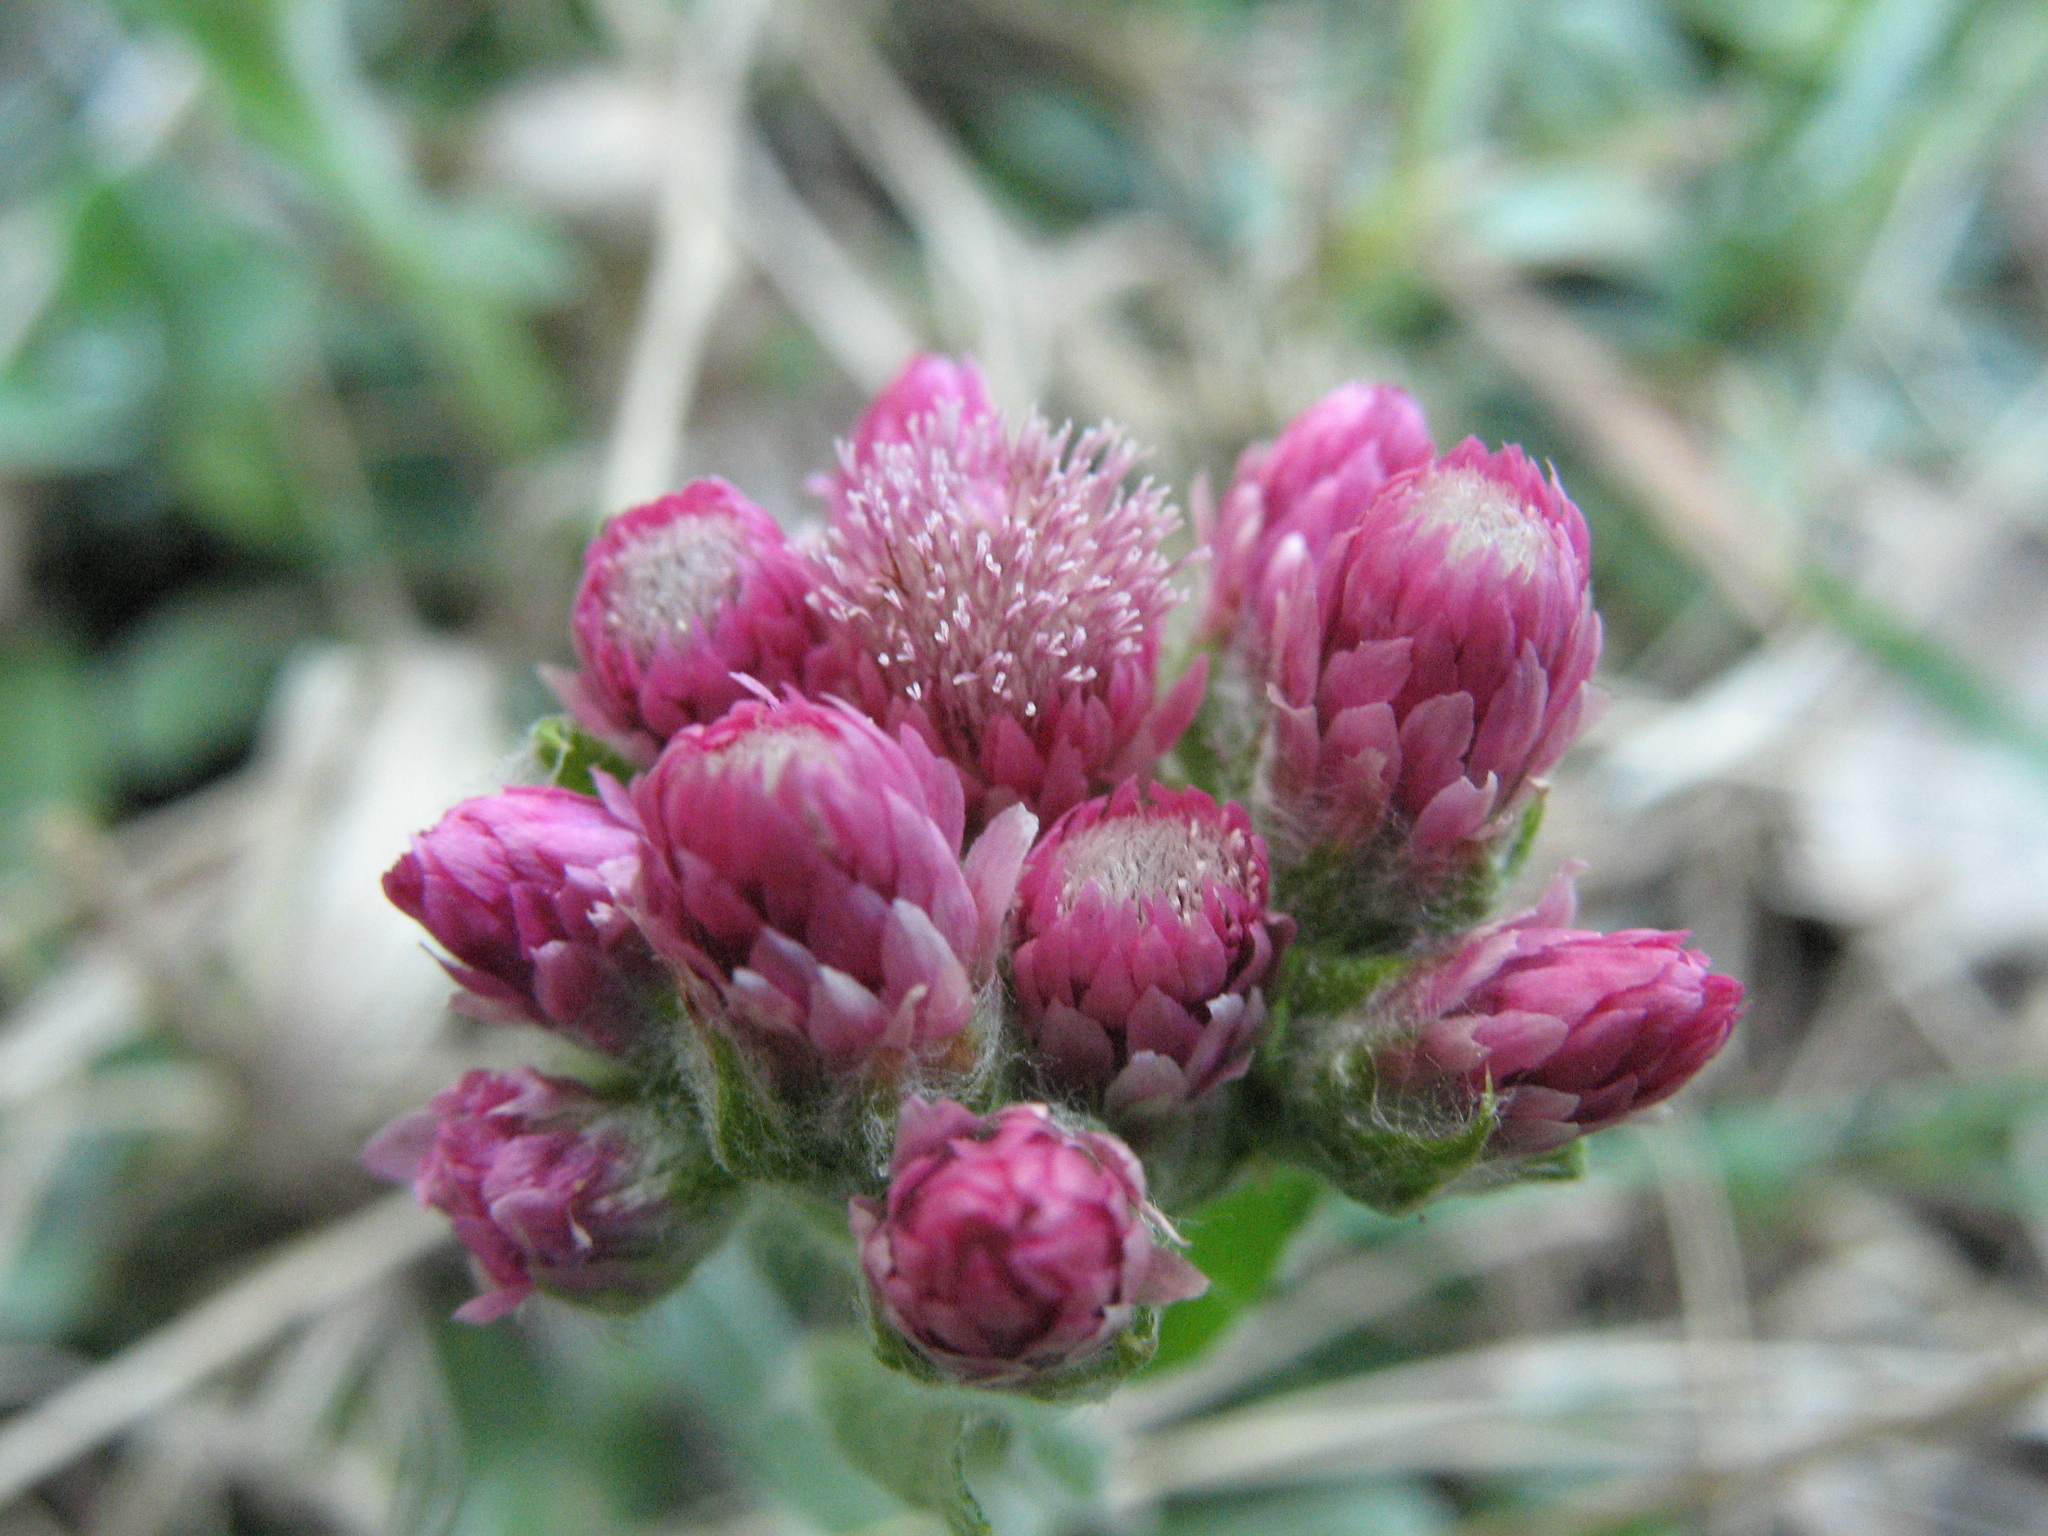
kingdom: Plantae
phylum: Tracheophyta
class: Magnoliopsida
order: Asterales
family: Asteraceae
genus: Antennaria
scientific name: Antennaria dioica
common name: Mountain everlasting
